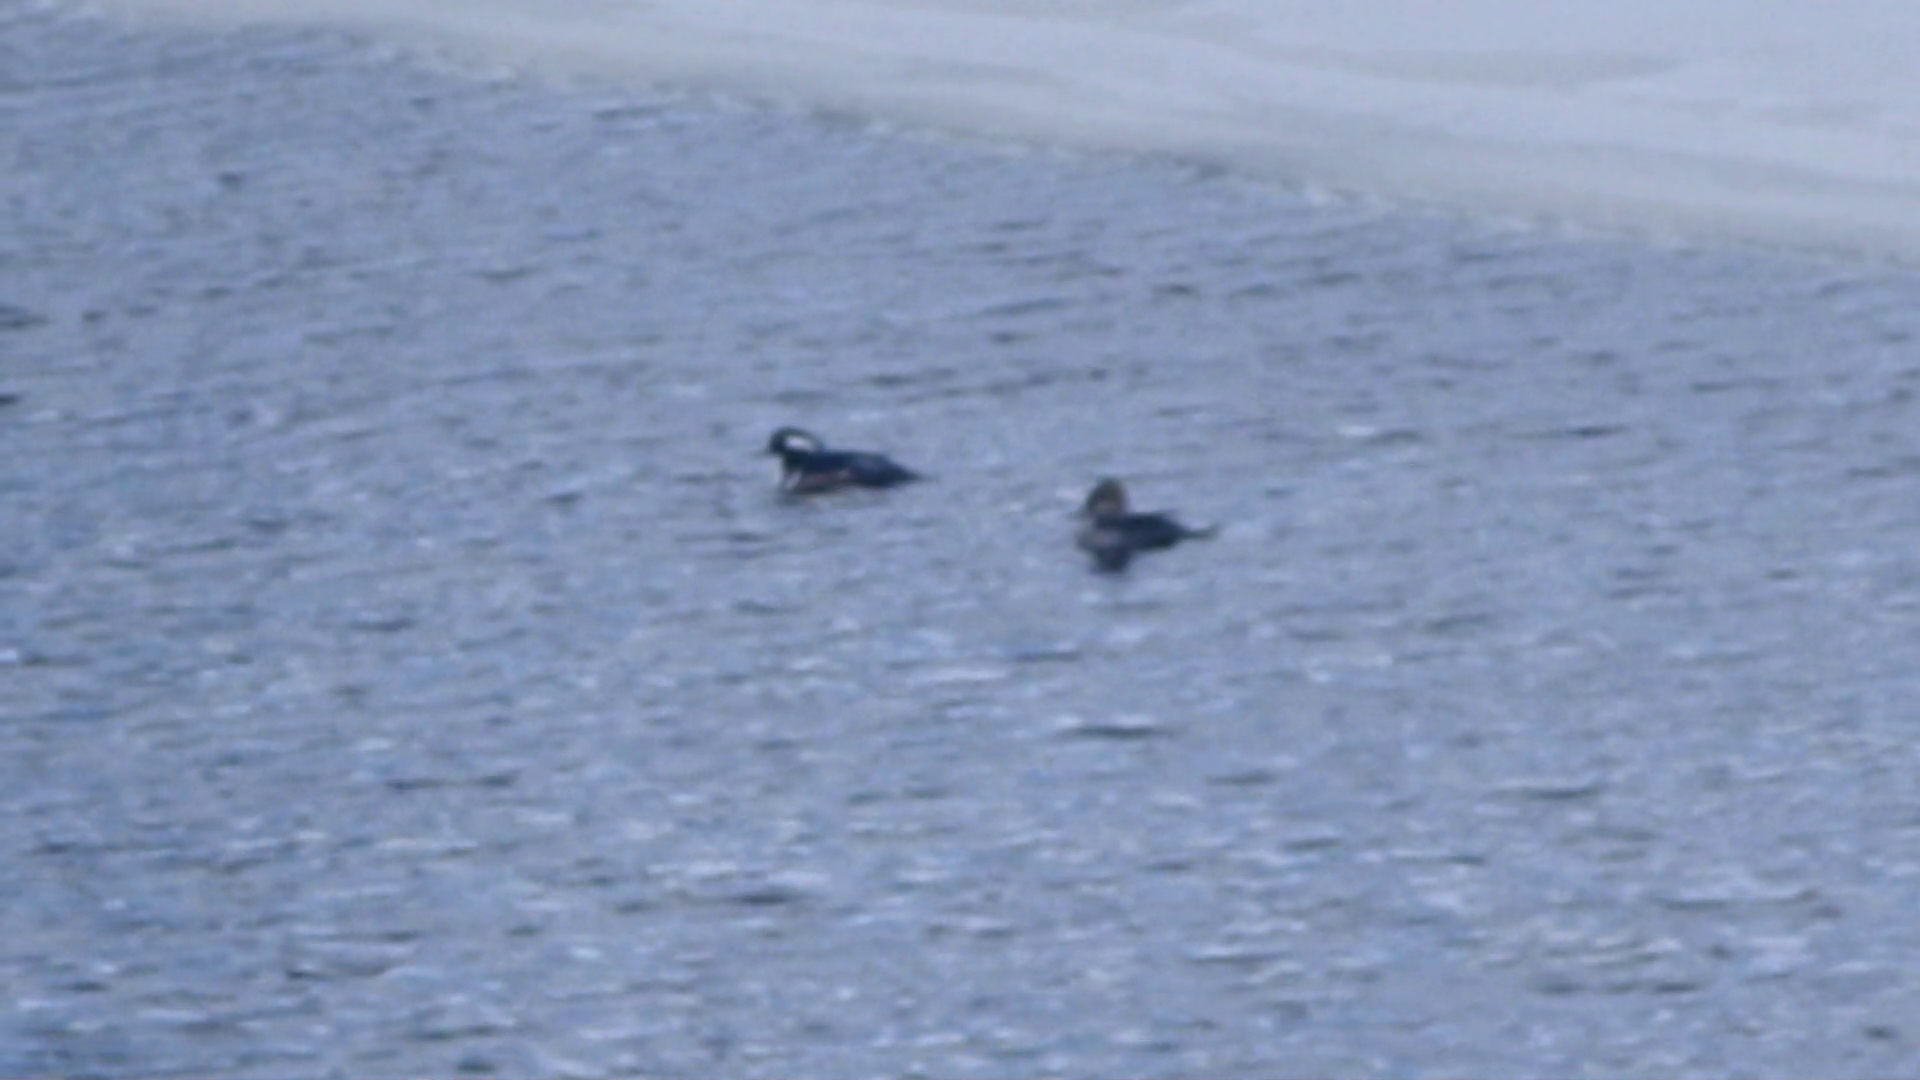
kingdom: Animalia
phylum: Chordata
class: Aves
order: Anseriformes
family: Anatidae
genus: Lophodytes
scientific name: Lophodytes cucullatus
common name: Hooded merganser
